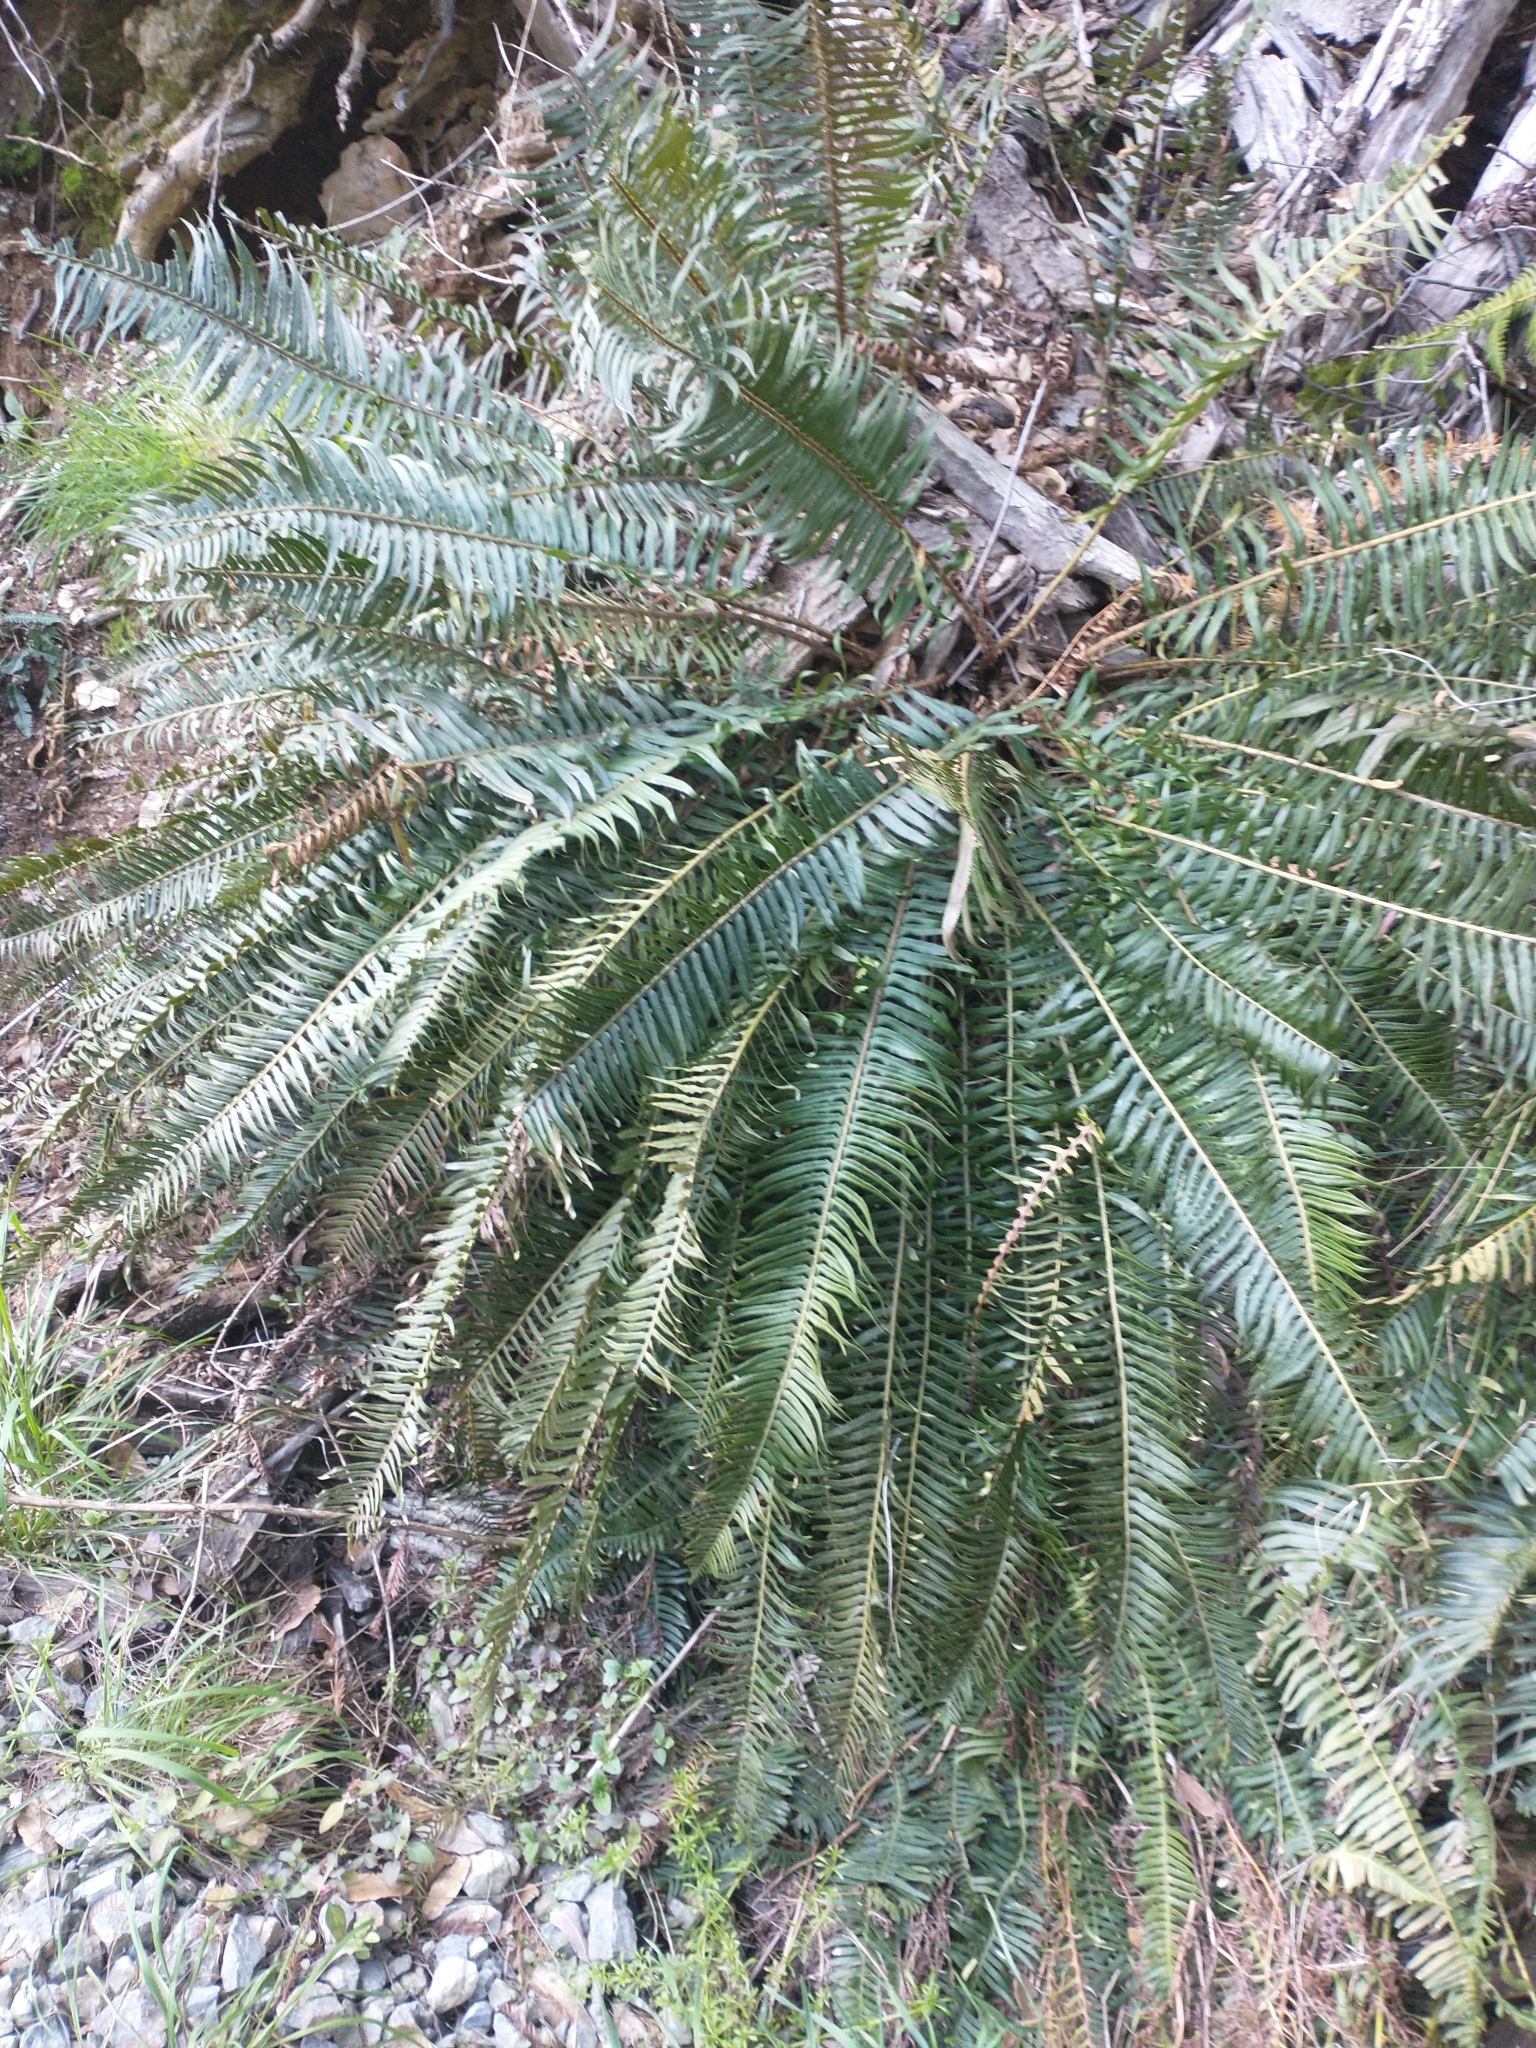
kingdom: Plantae
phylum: Tracheophyta
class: Polypodiopsida
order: Polypodiales
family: Dryopteridaceae
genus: Polystichum
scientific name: Polystichum munitum
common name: Western sword-fern
